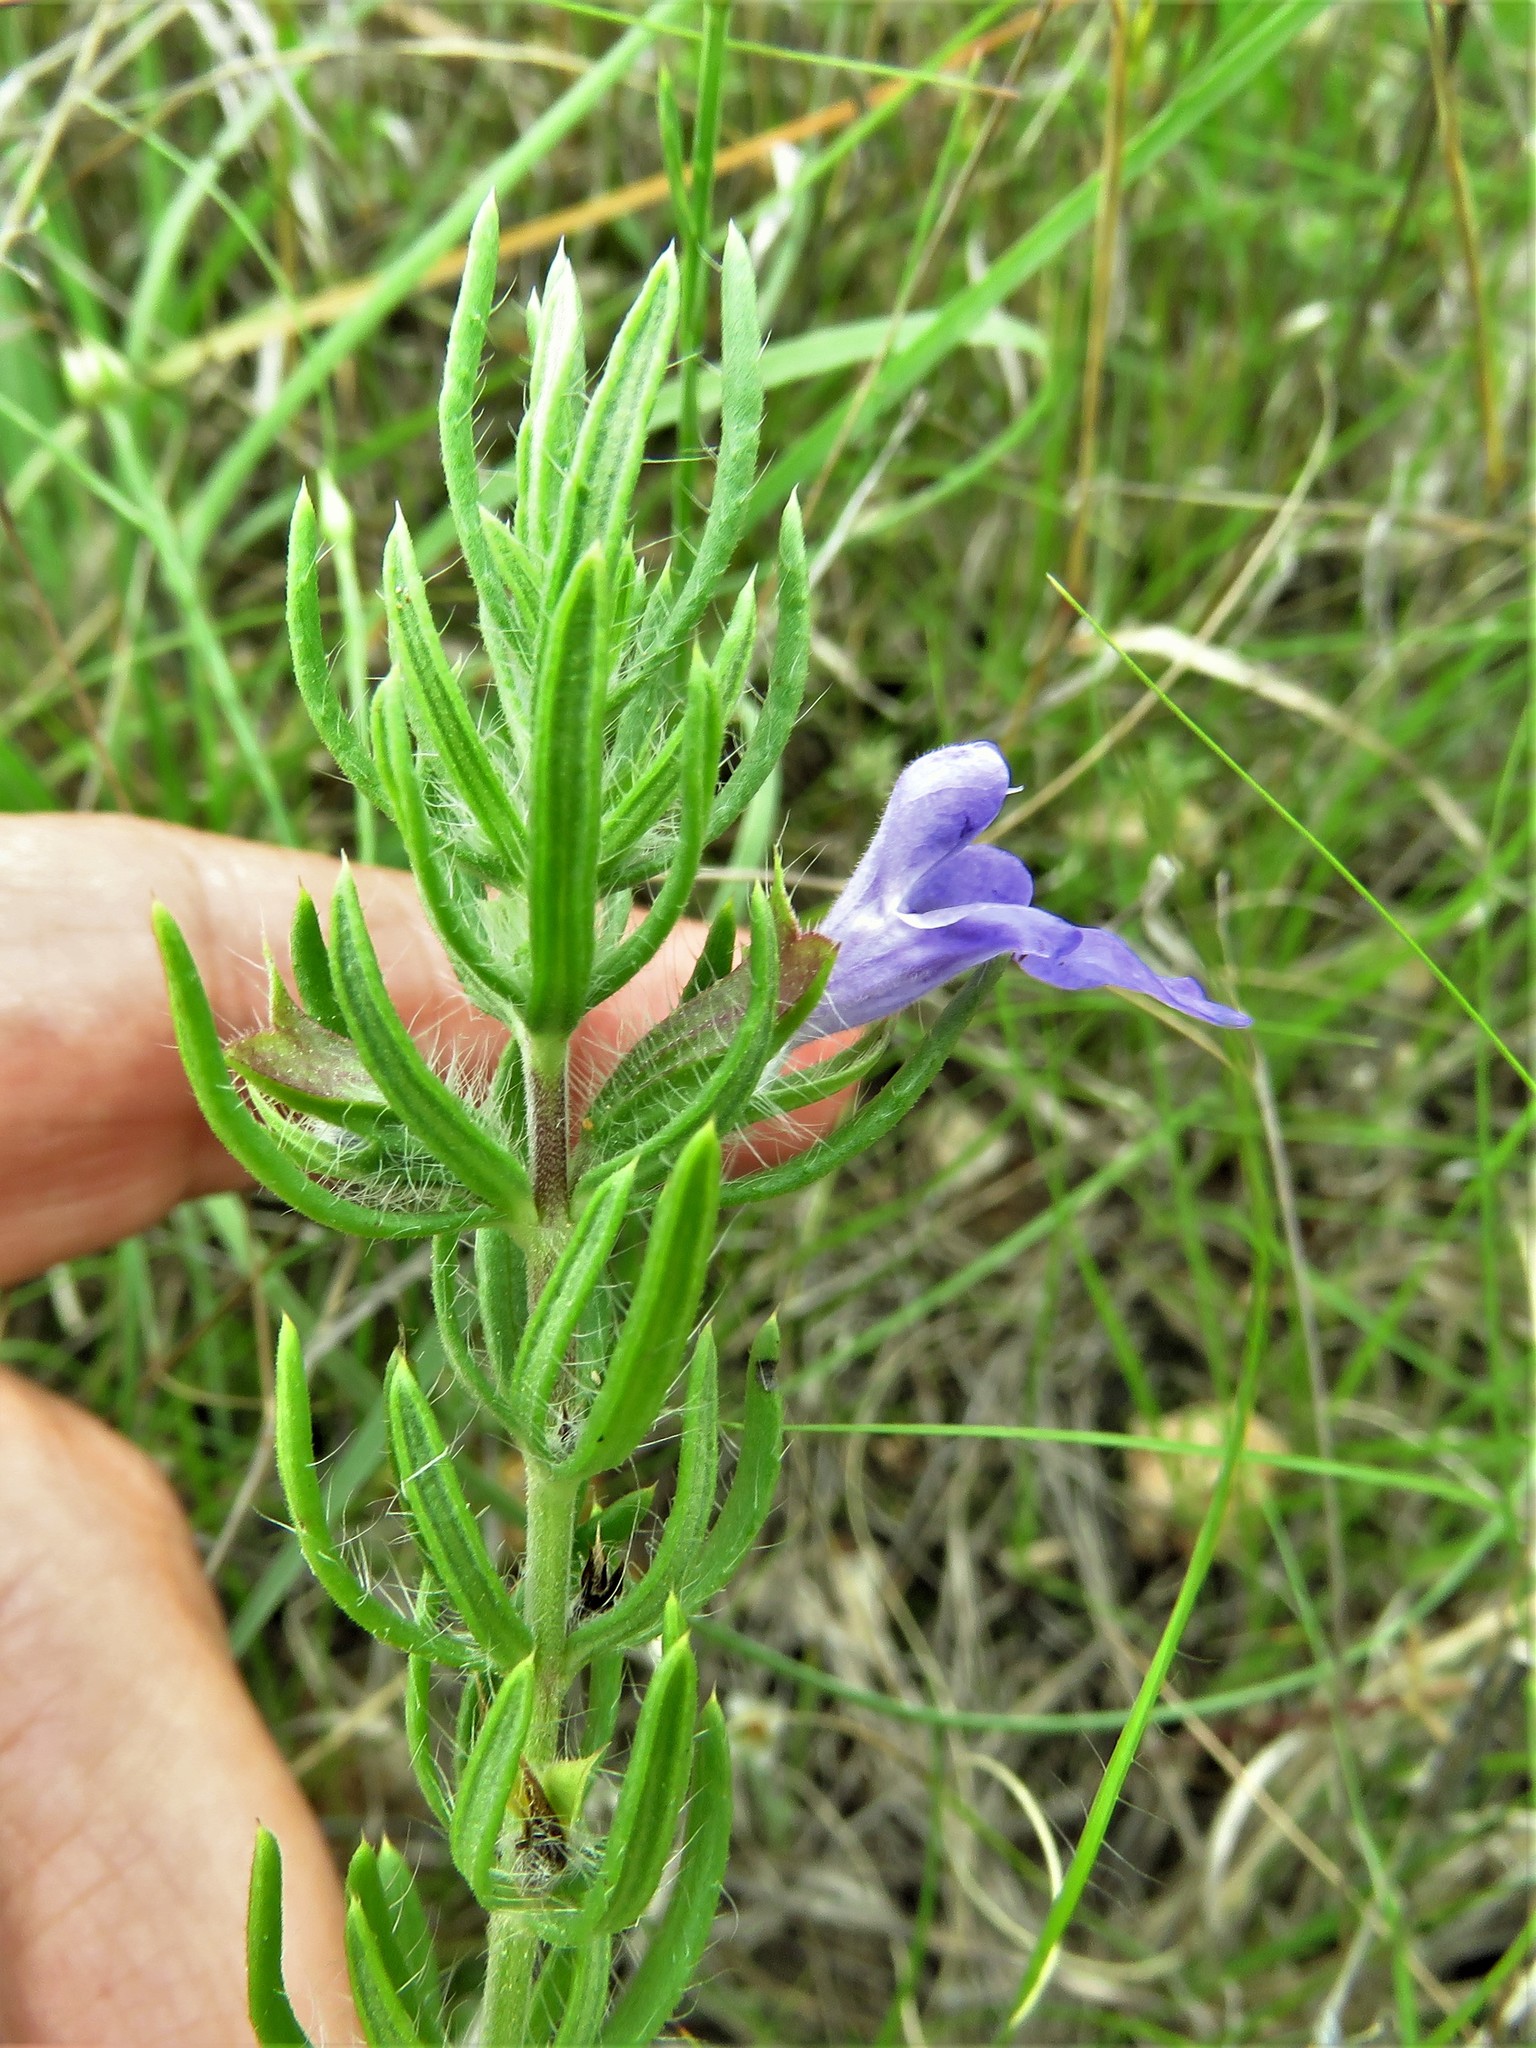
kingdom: Plantae
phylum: Tracheophyta
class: Magnoliopsida
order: Lamiales
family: Lamiaceae
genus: Salvia
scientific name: Salvia texana
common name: Texas sage
